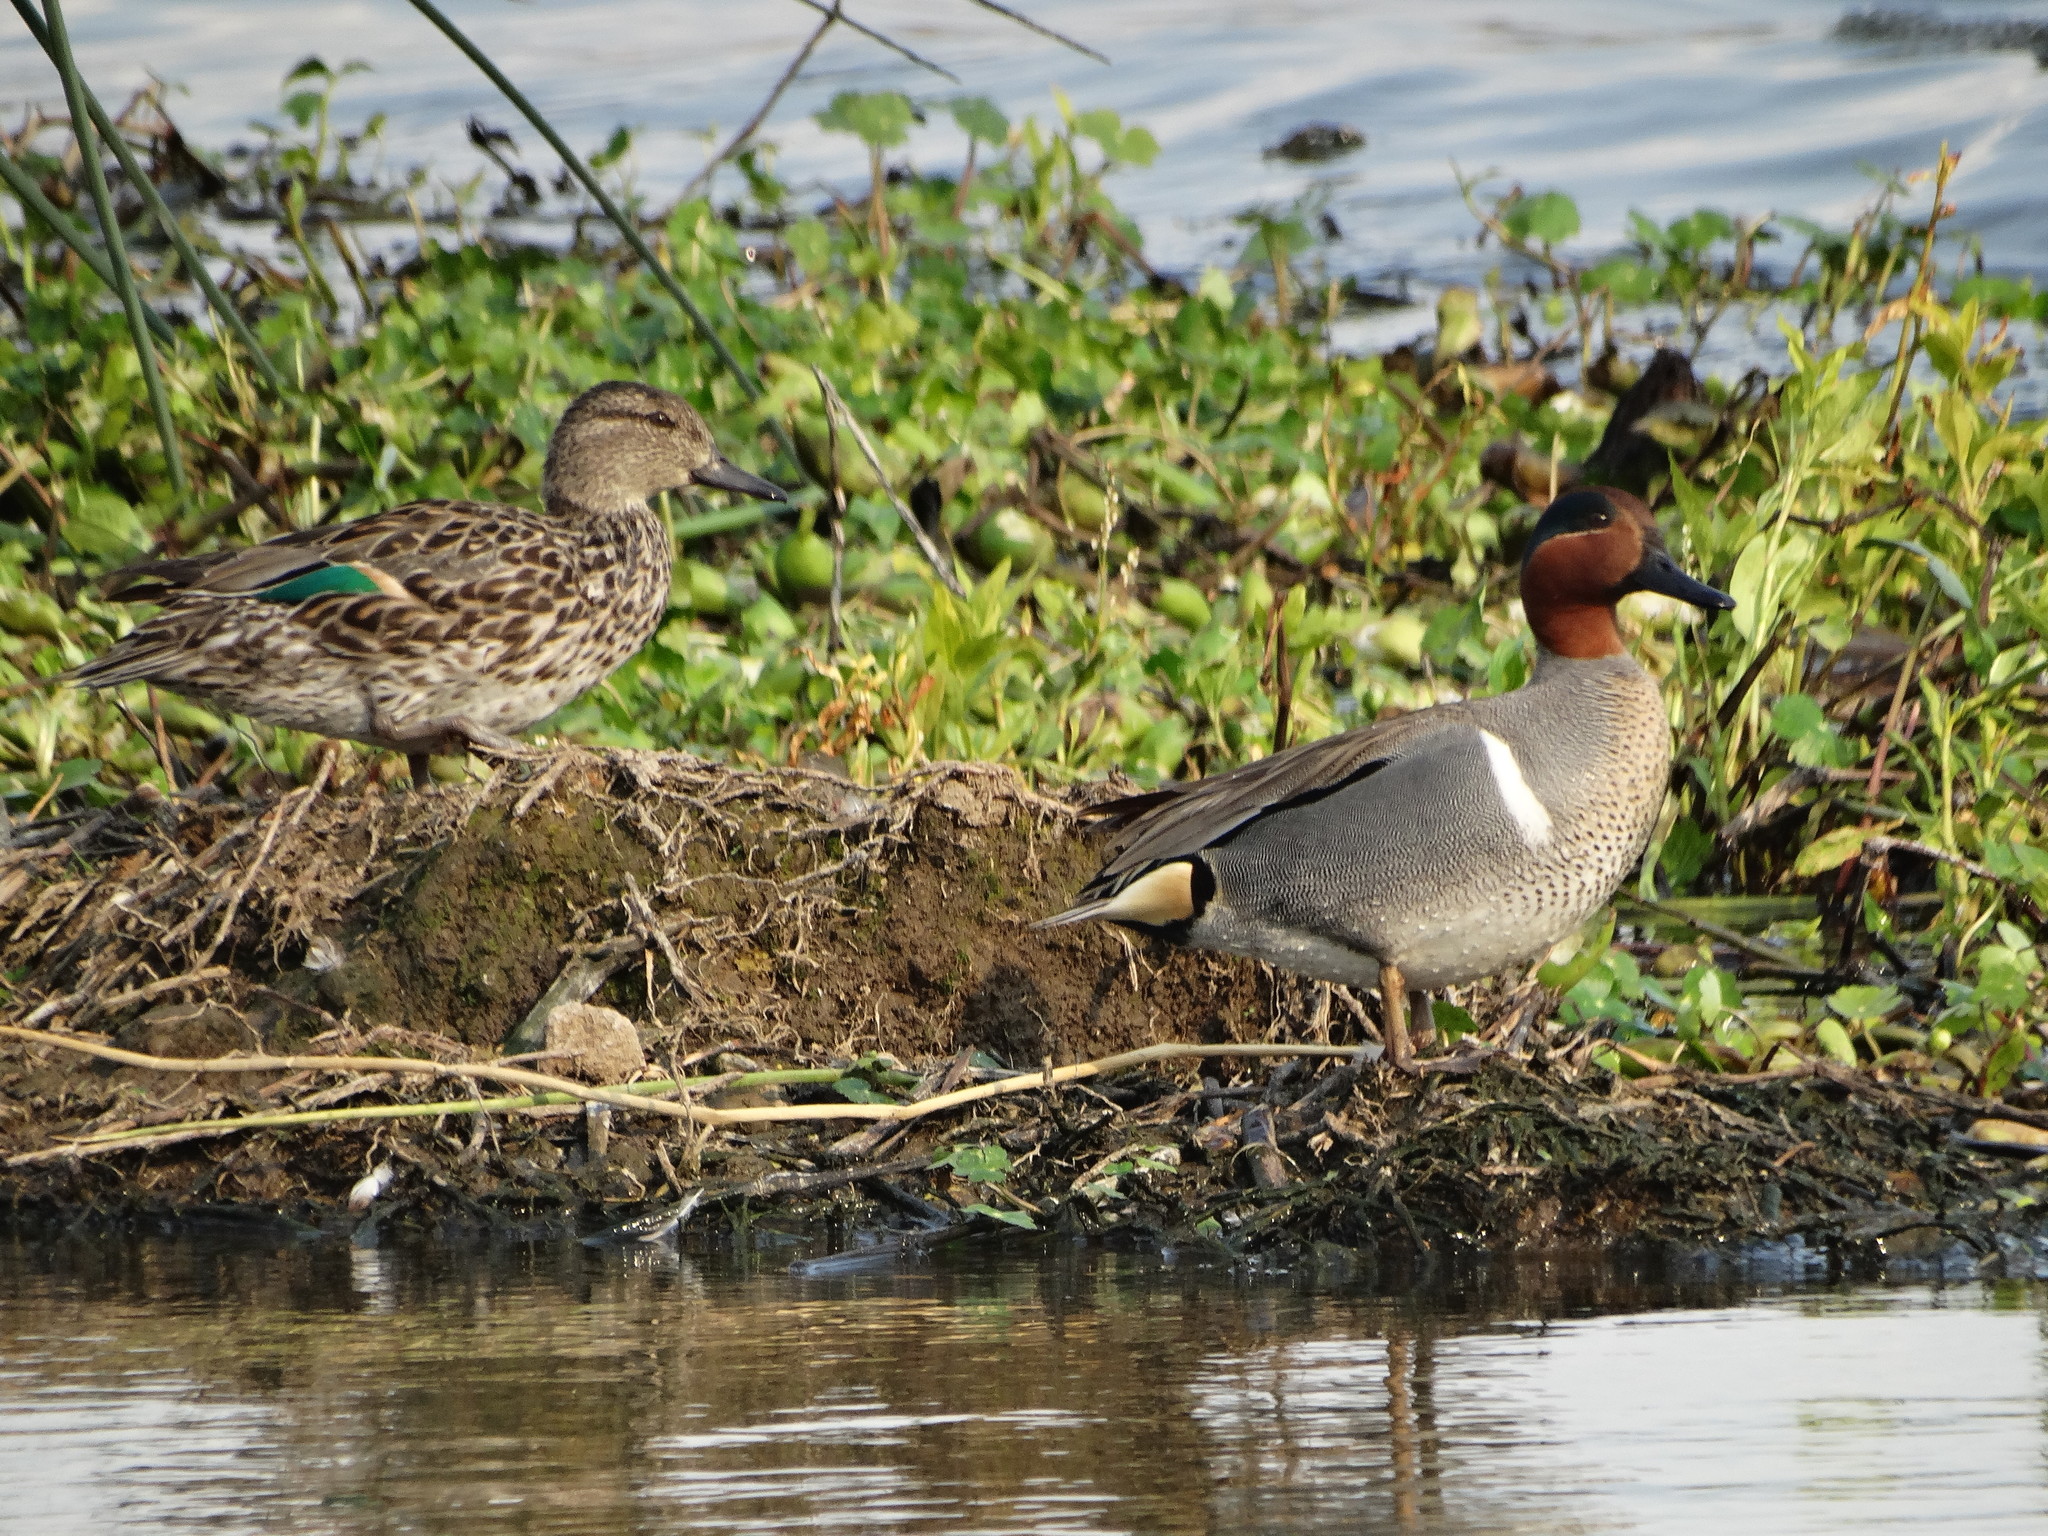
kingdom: Animalia
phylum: Chordata
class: Aves
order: Anseriformes
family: Anatidae
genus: Anas
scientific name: Anas carolinensis
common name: Green-winged teal
